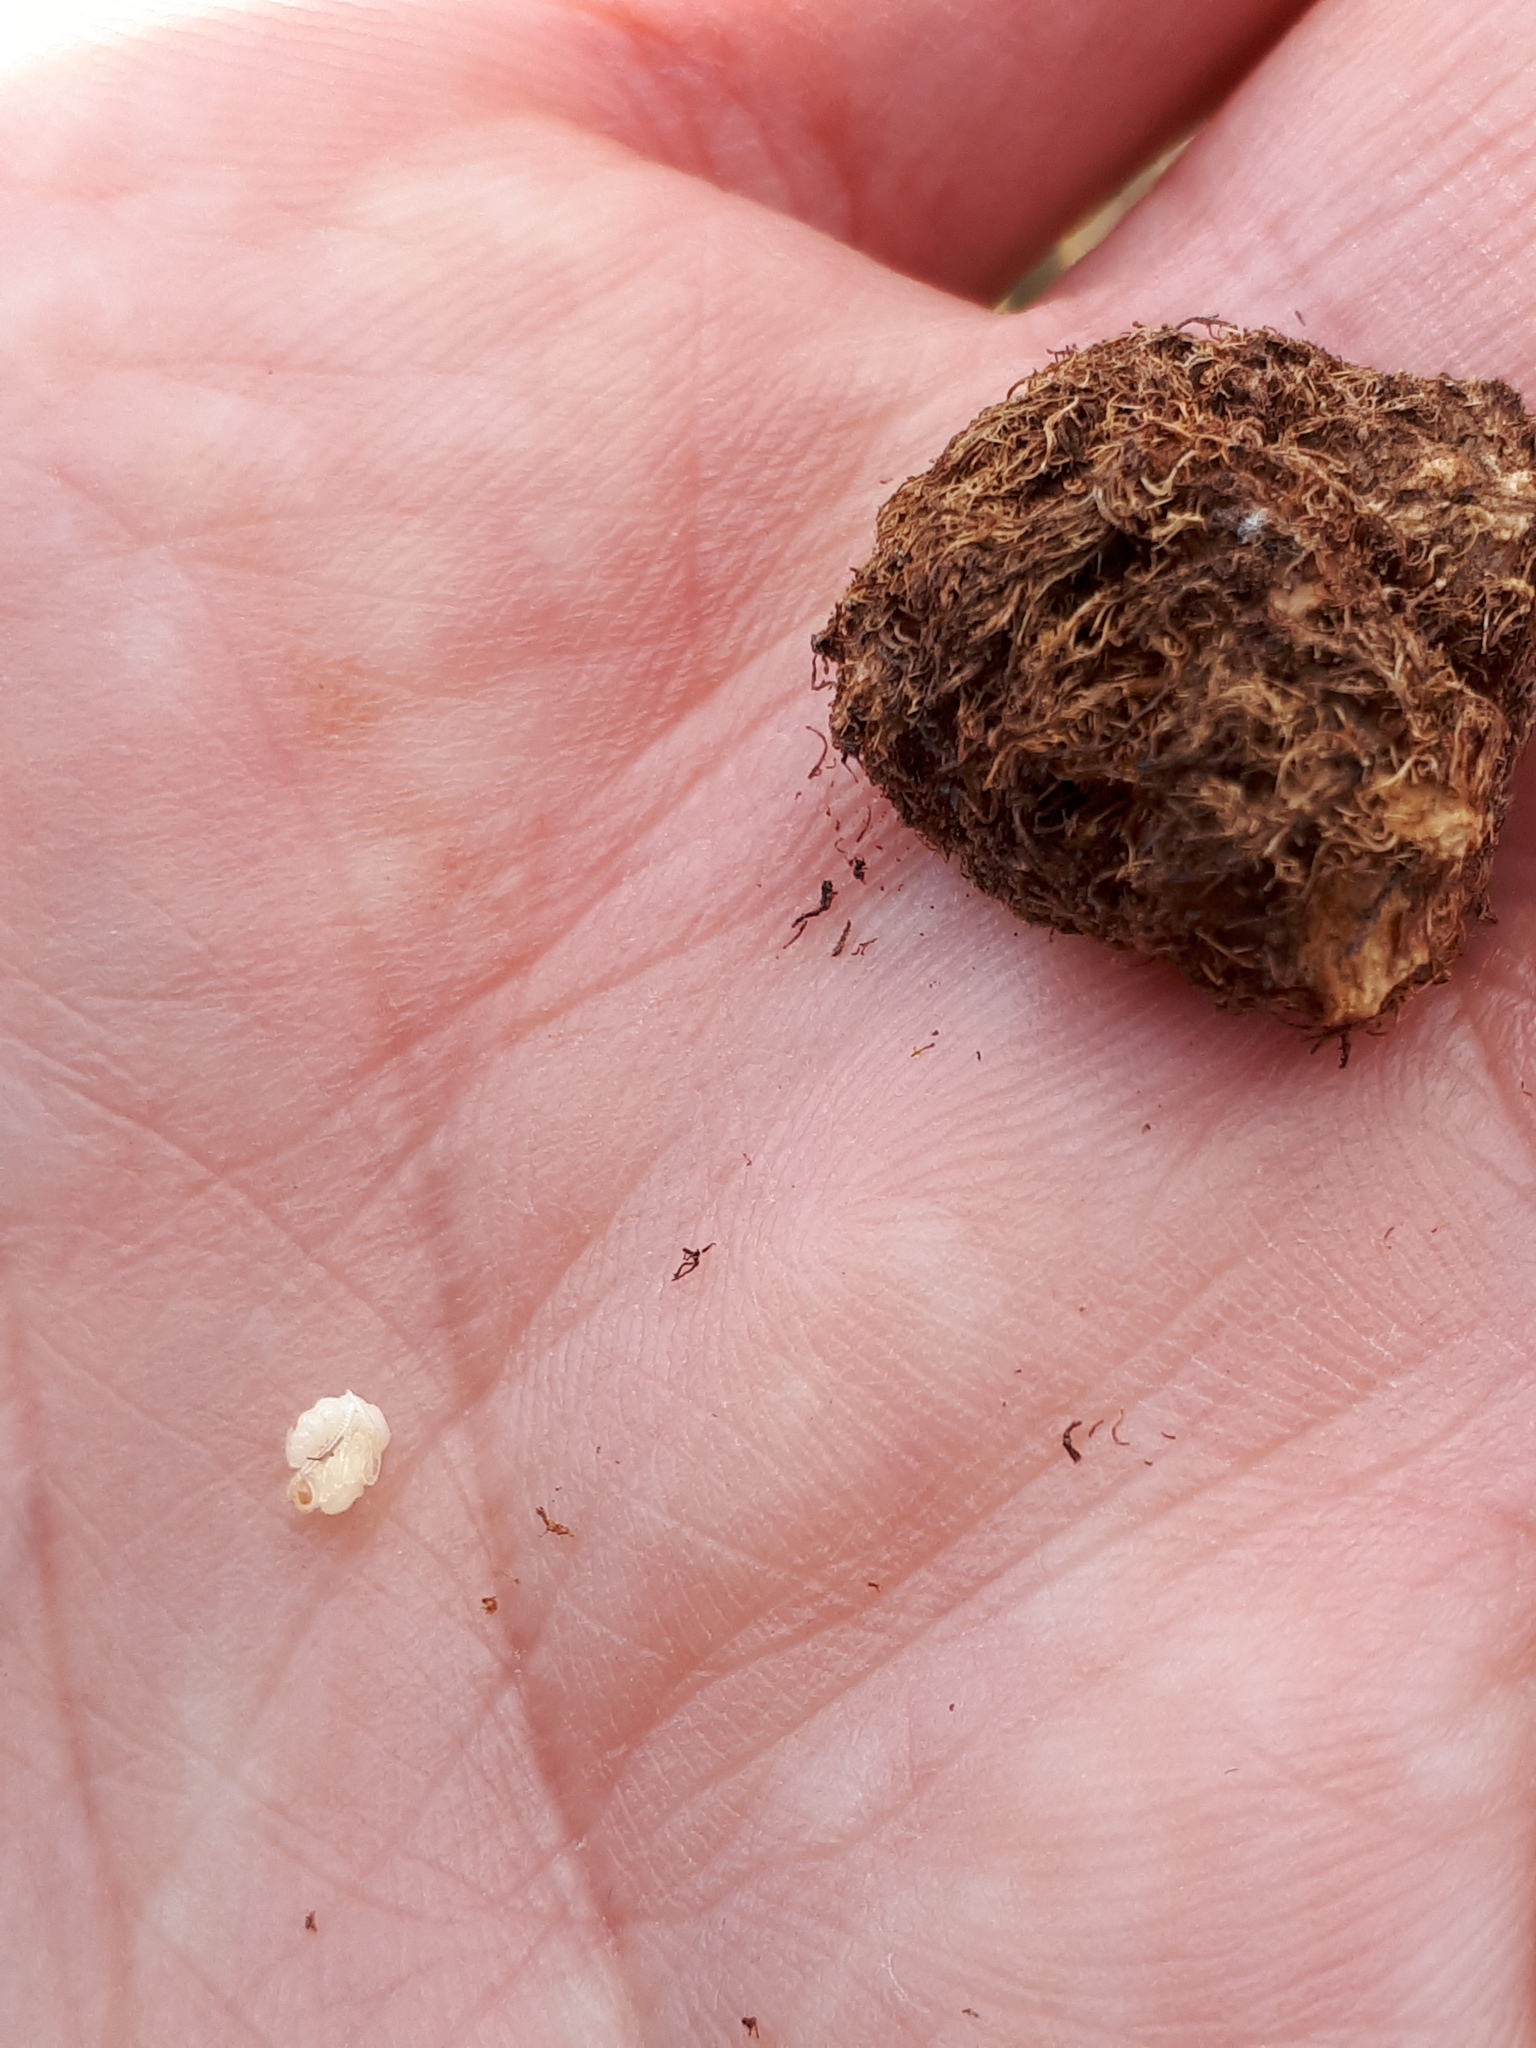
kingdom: Animalia
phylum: Arthropoda
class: Insecta
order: Hymenoptera
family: Cynipidae
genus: Diplolepis
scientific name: Diplolepis rosae
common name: Bedeguar gall
